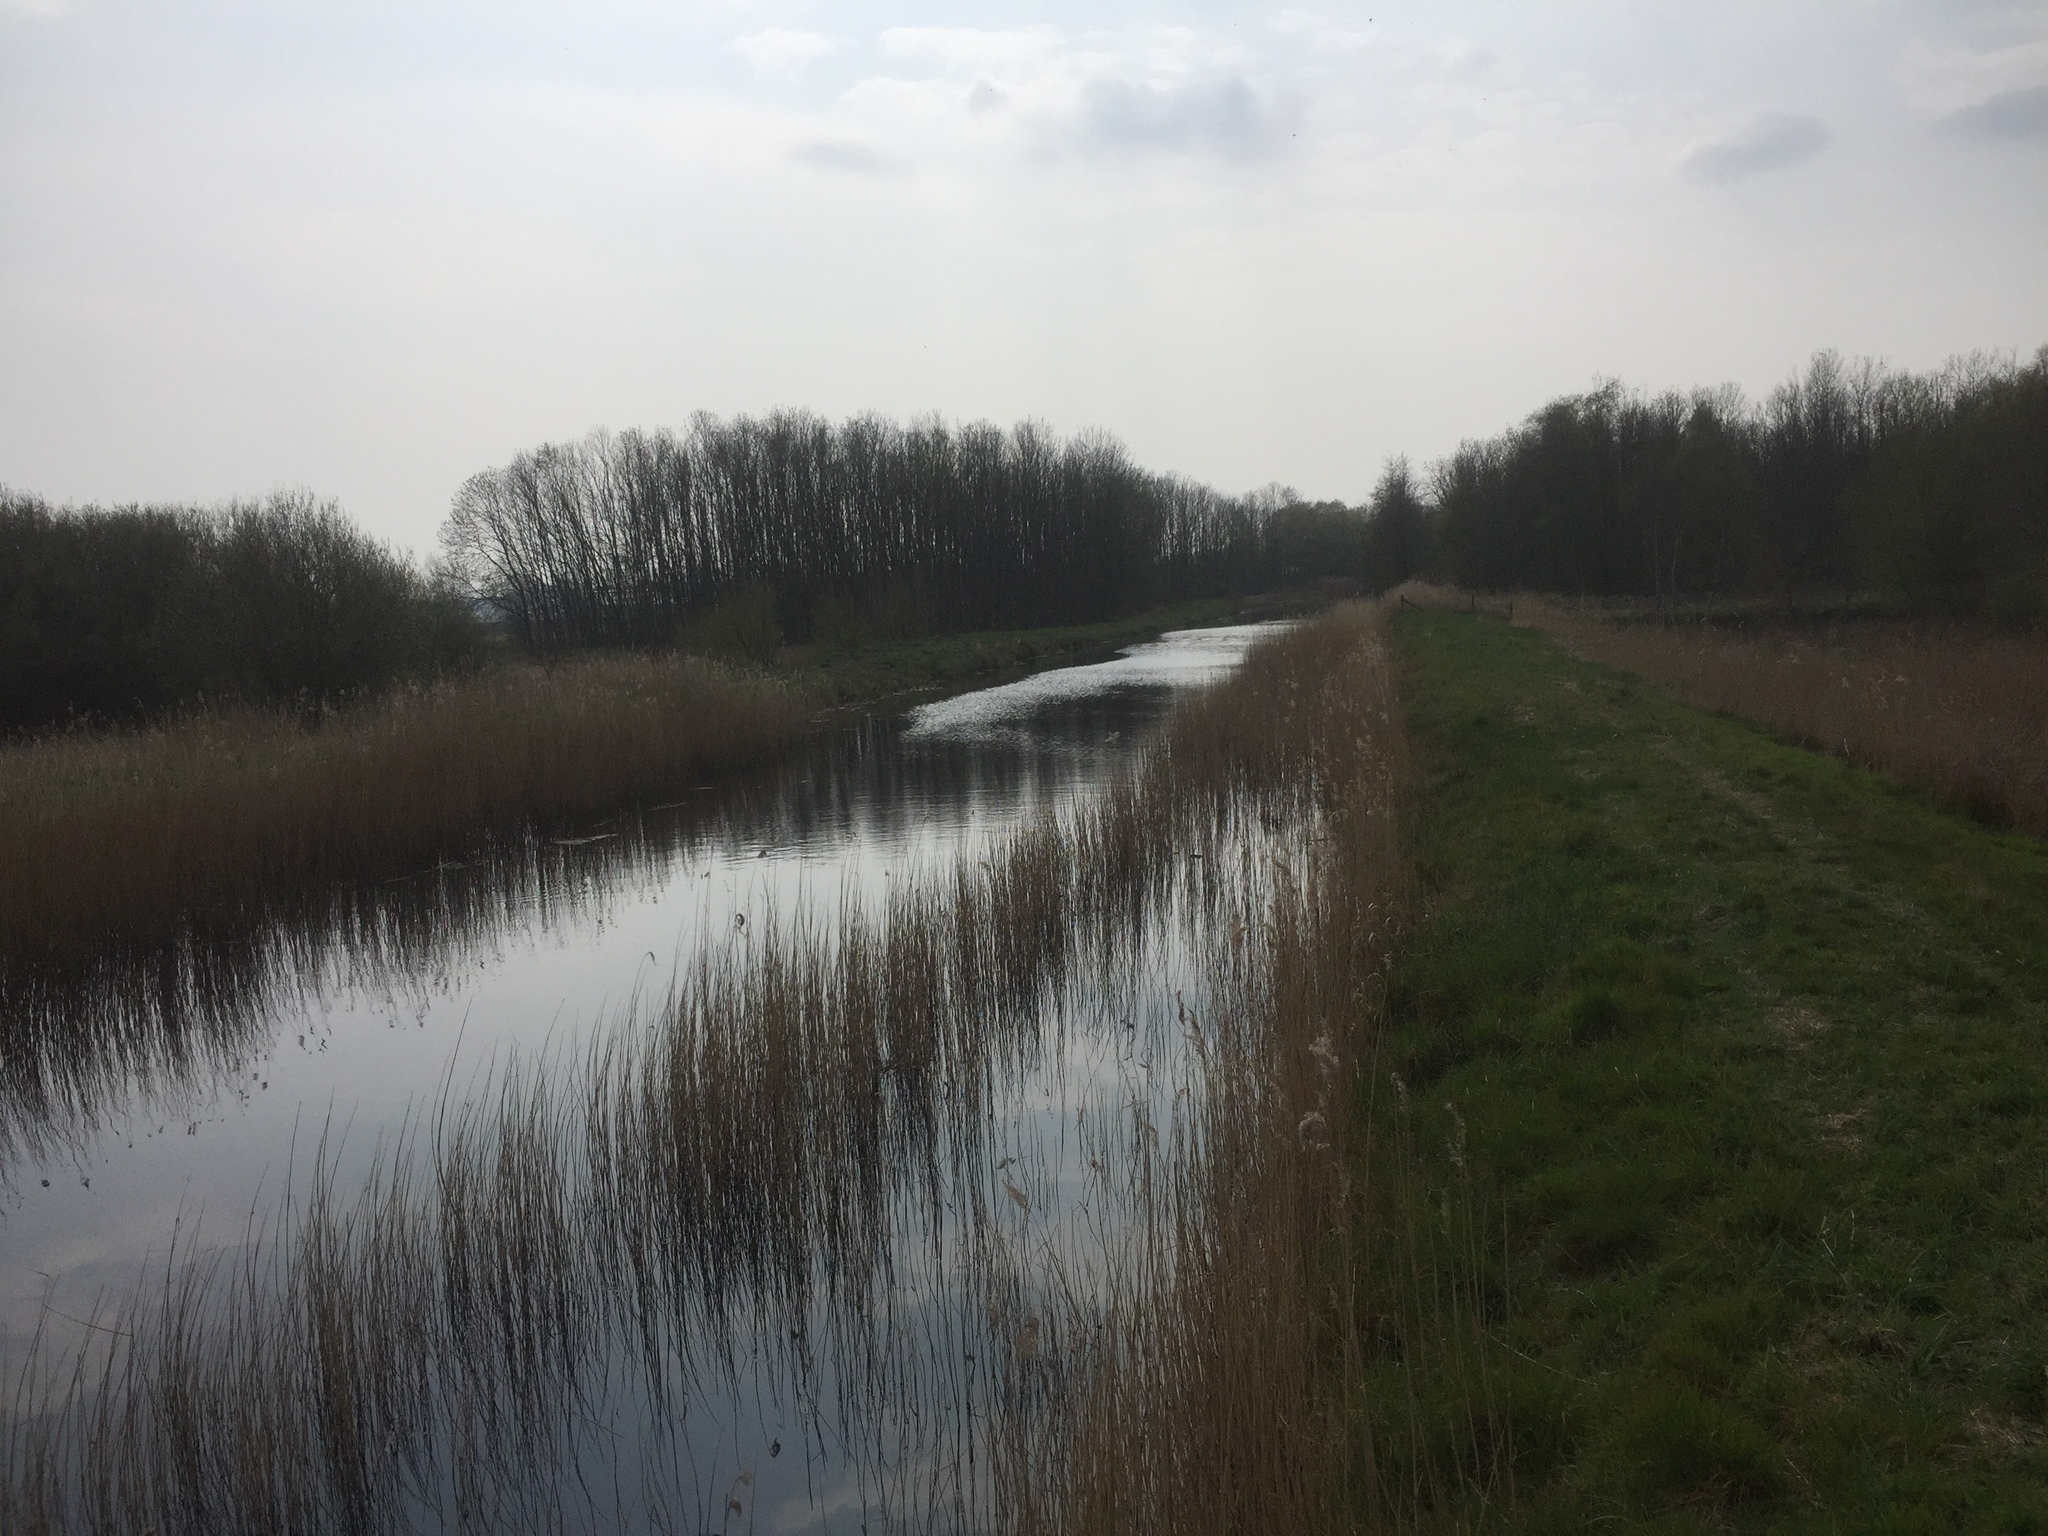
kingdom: Plantae
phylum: Tracheophyta
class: Liliopsida
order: Poales
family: Poaceae
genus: Phragmites
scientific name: Phragmites australis
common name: Common reed
